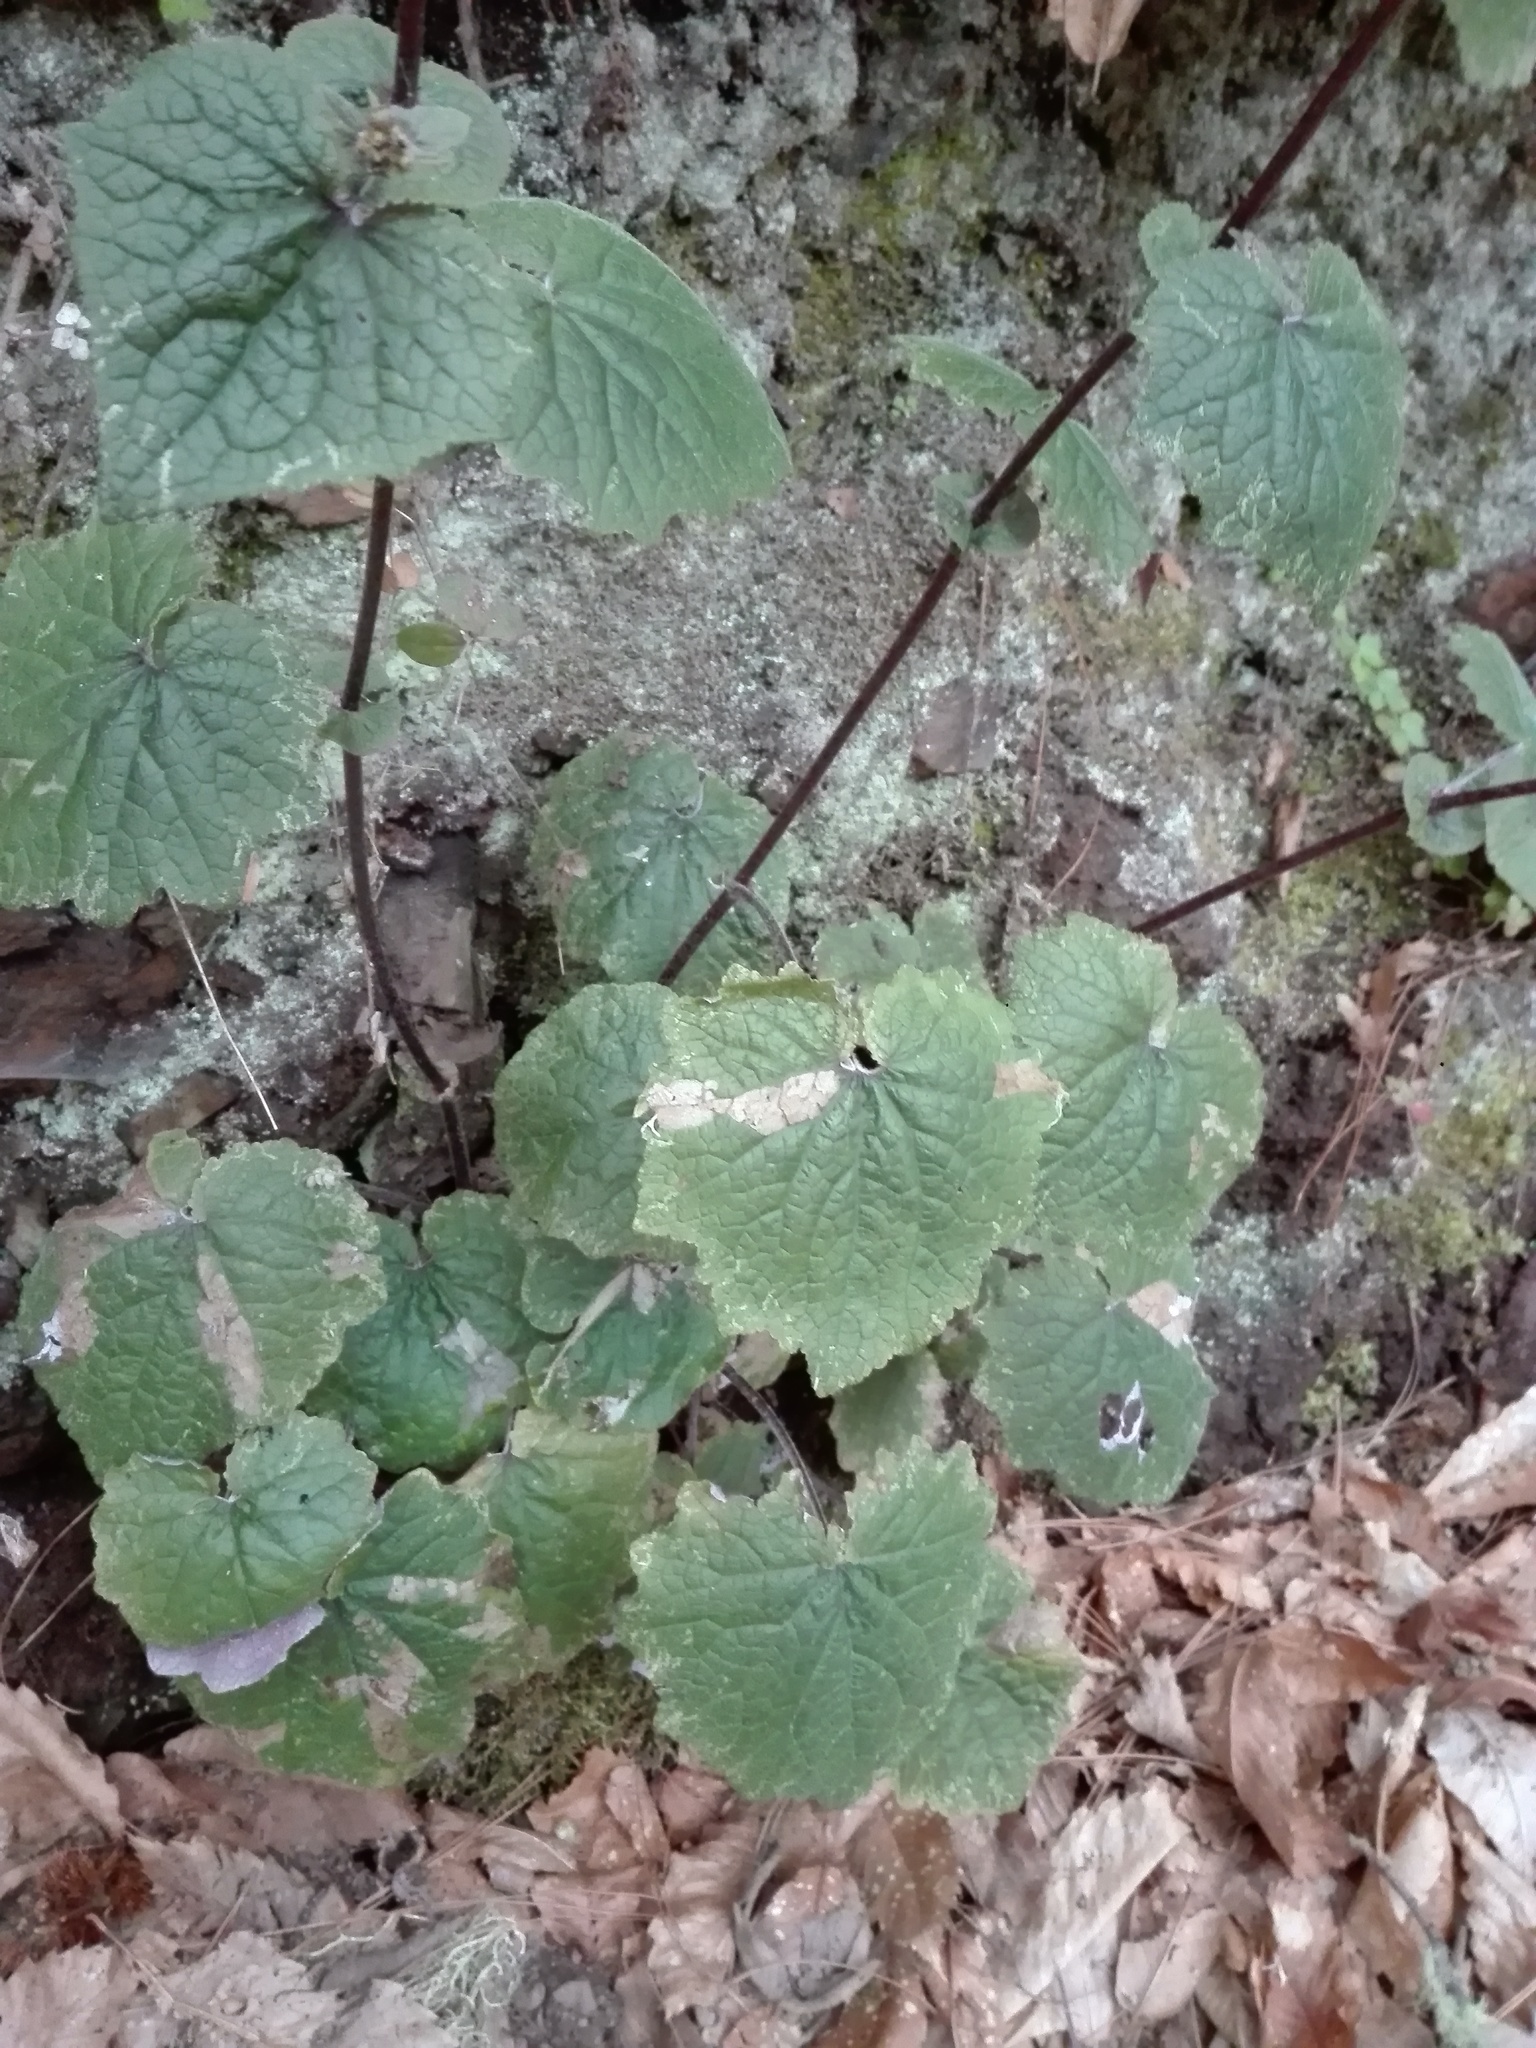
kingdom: Plantae
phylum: Tracheophyta
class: Magnoliopsida
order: Asterales
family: Asteraceae
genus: Pericallis
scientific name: Pericallis cruenta
